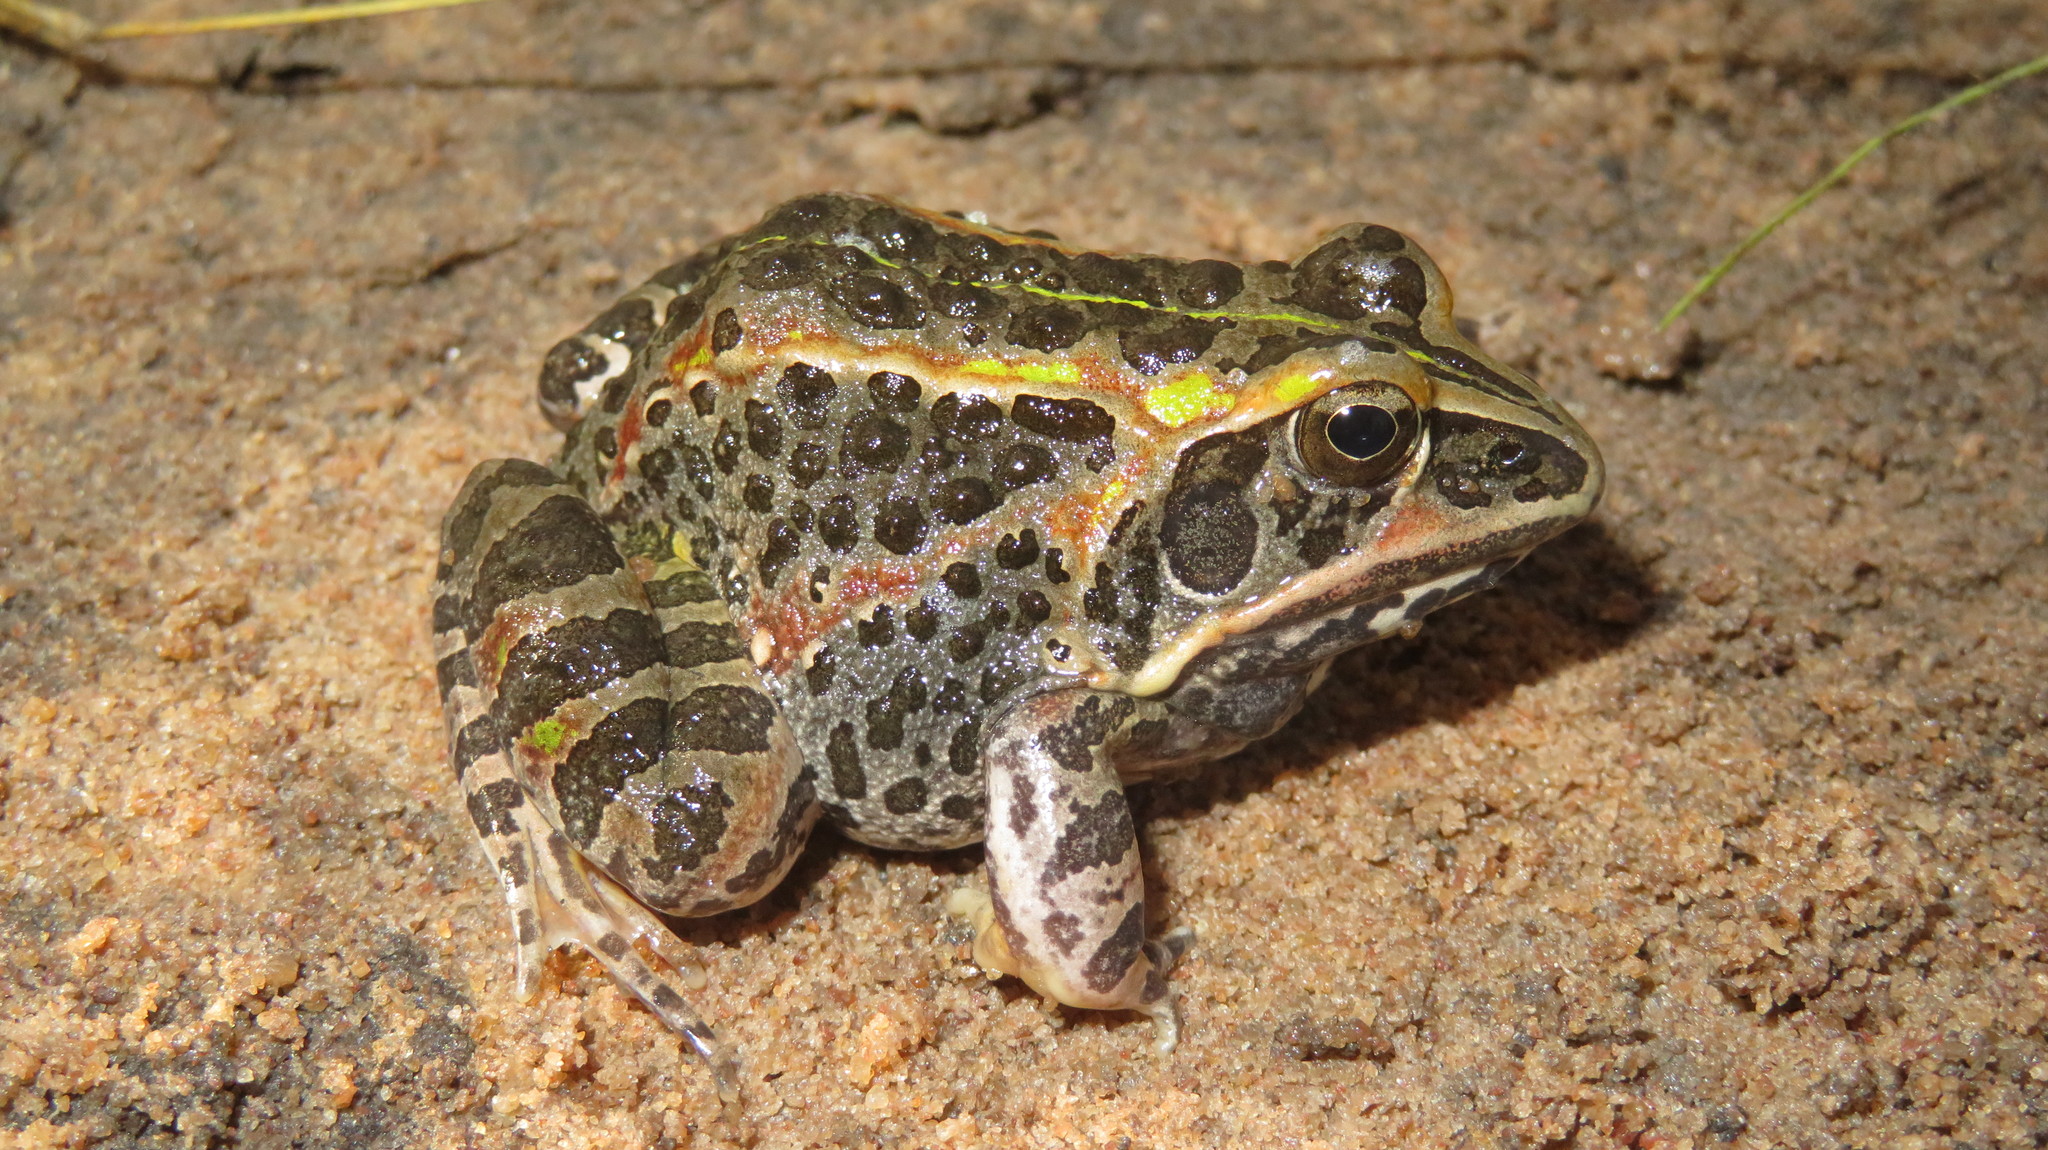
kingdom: Animalia
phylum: Chordata
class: Amphibia
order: Anura
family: Ptychadenidae
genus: Hildebrandtia
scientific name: Hildebrandtia ornata
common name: Ornate frog
